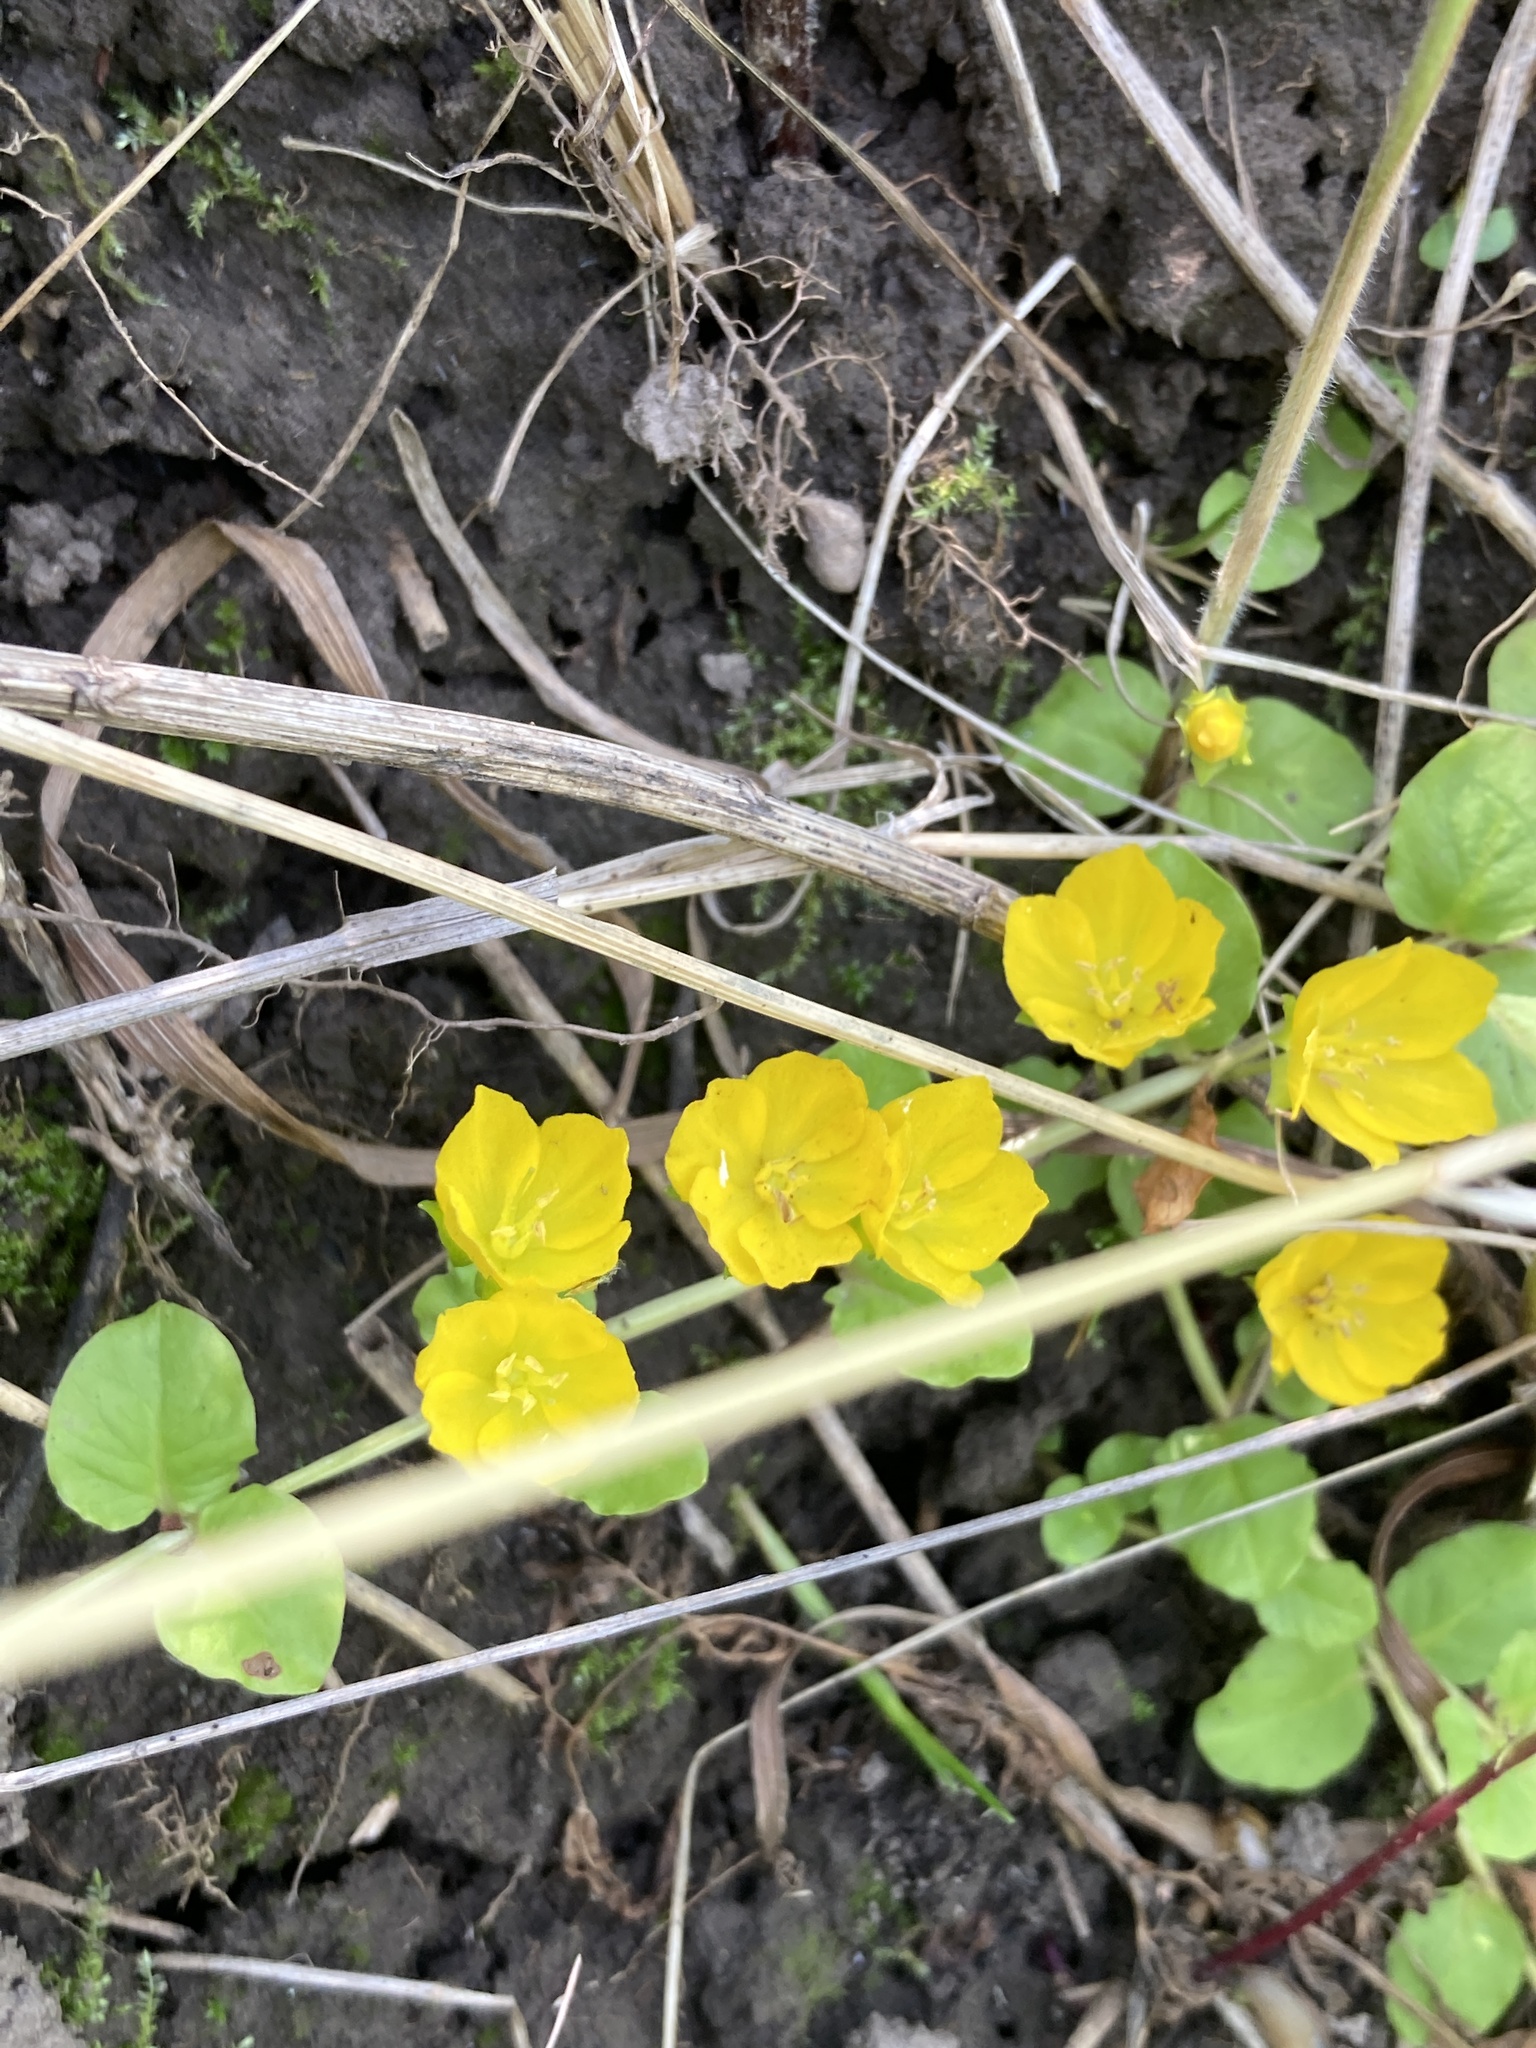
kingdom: Plantae
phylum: Tracheophyta
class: Magnoliopsida
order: Ericales
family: Primulaceae
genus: Lysimachia
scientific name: Lysimachia nummularia
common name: Moneywort
